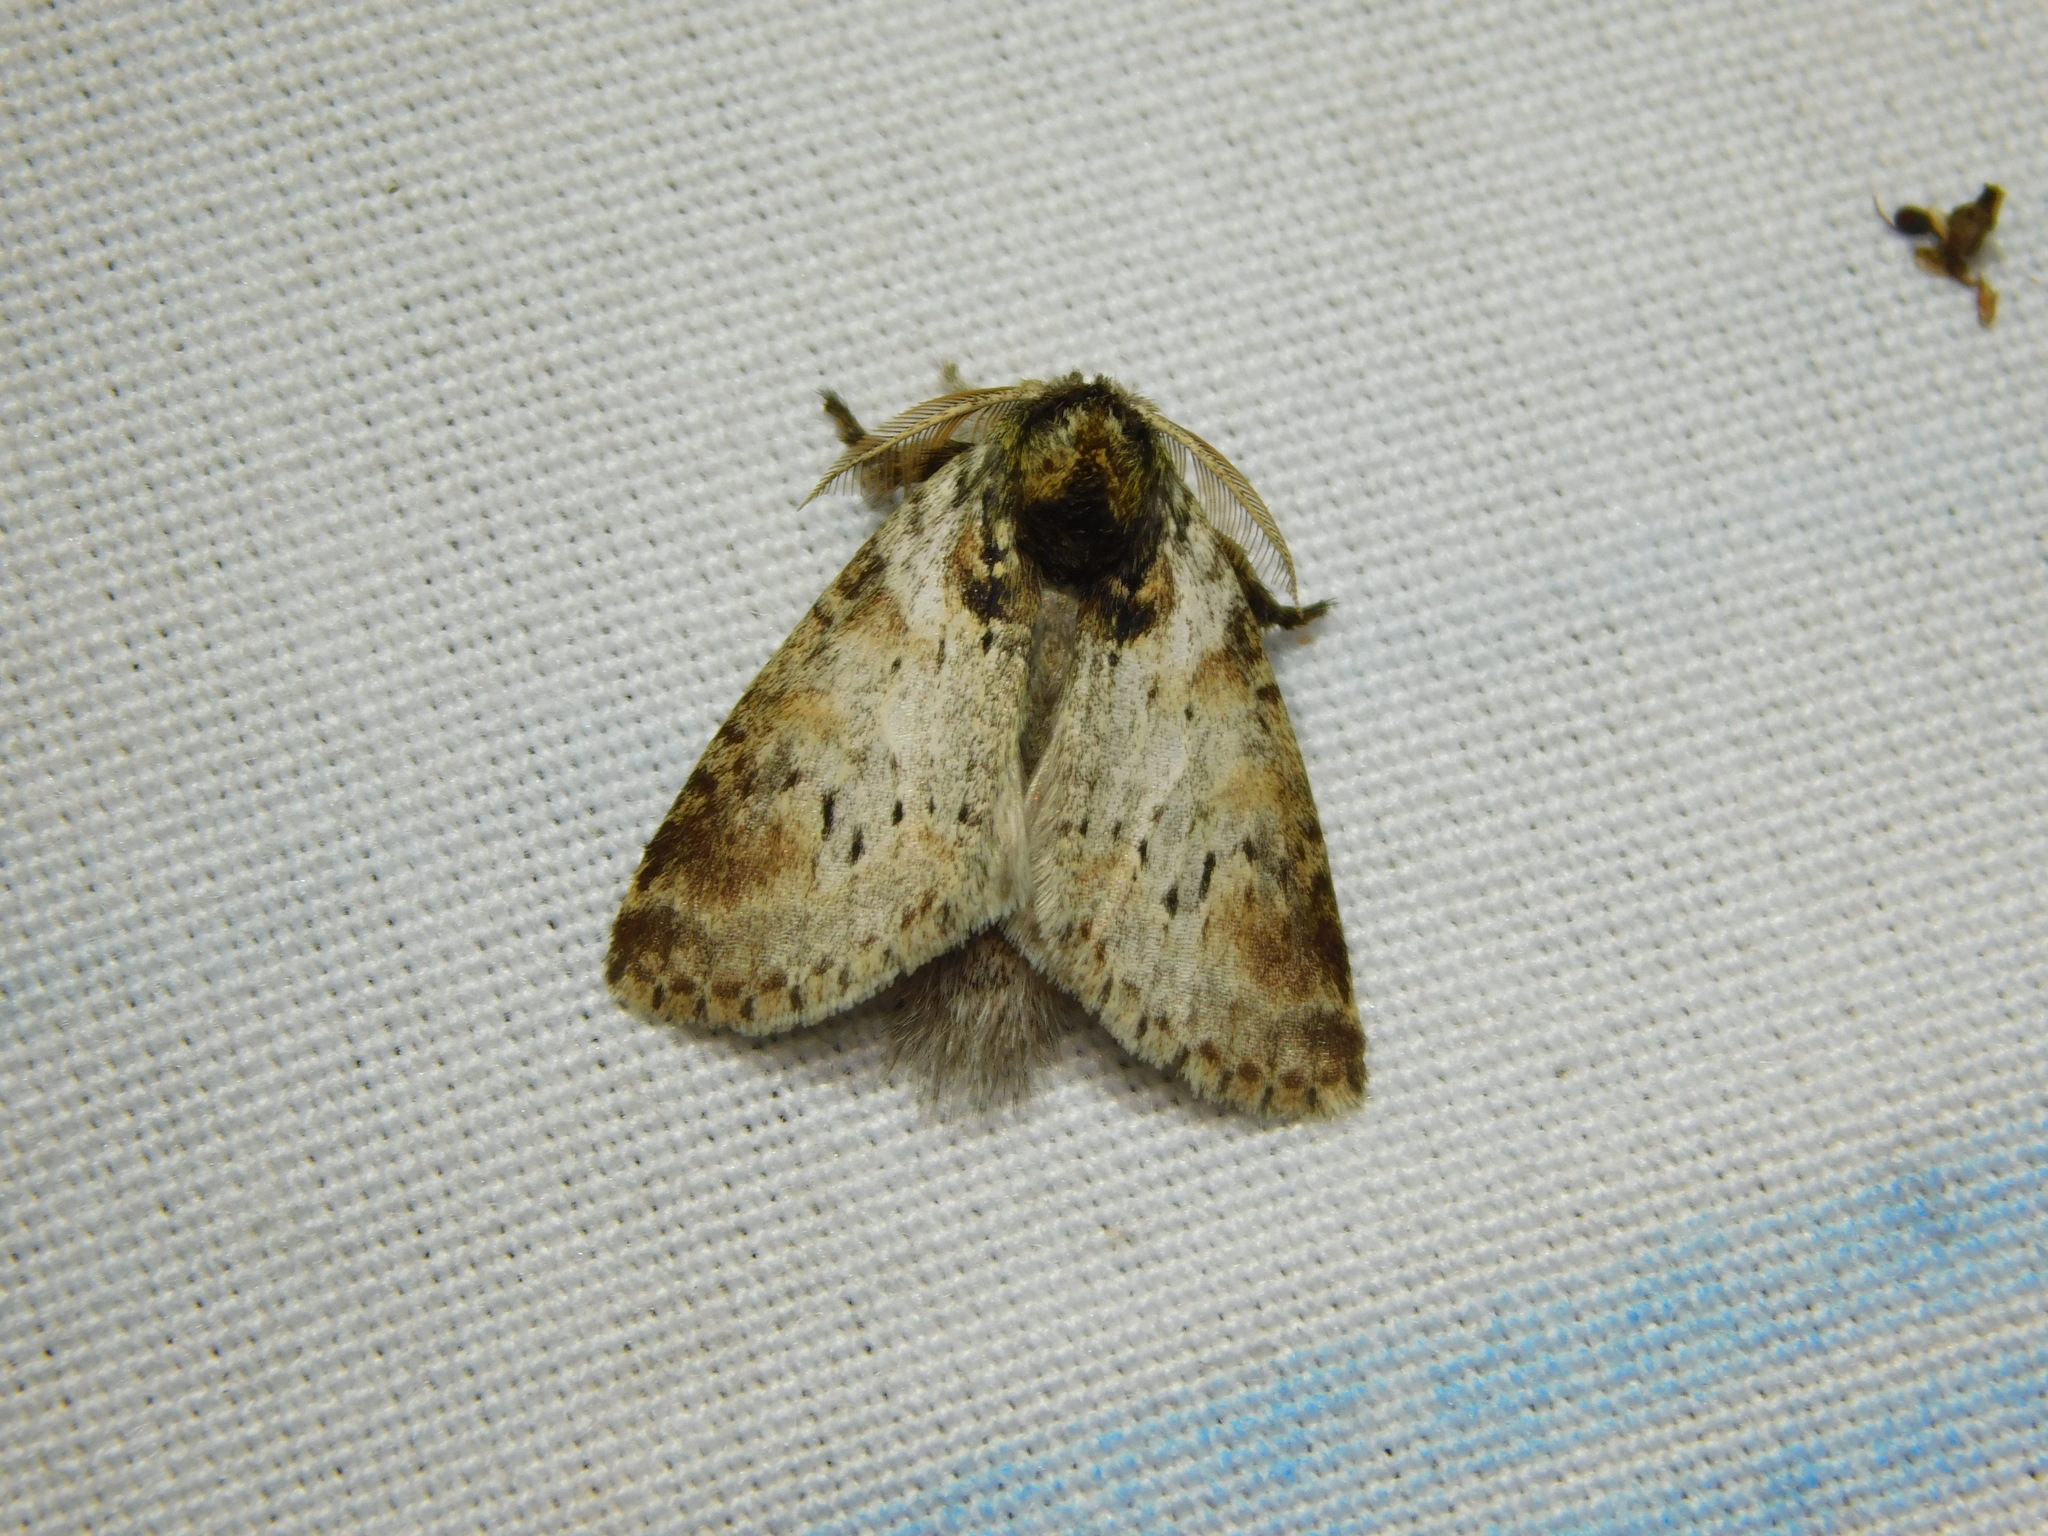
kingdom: Animalia
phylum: Arthropoda
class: Insecta
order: Lepidoptera
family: Notodontidae
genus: Notodontella
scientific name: Notodontella
